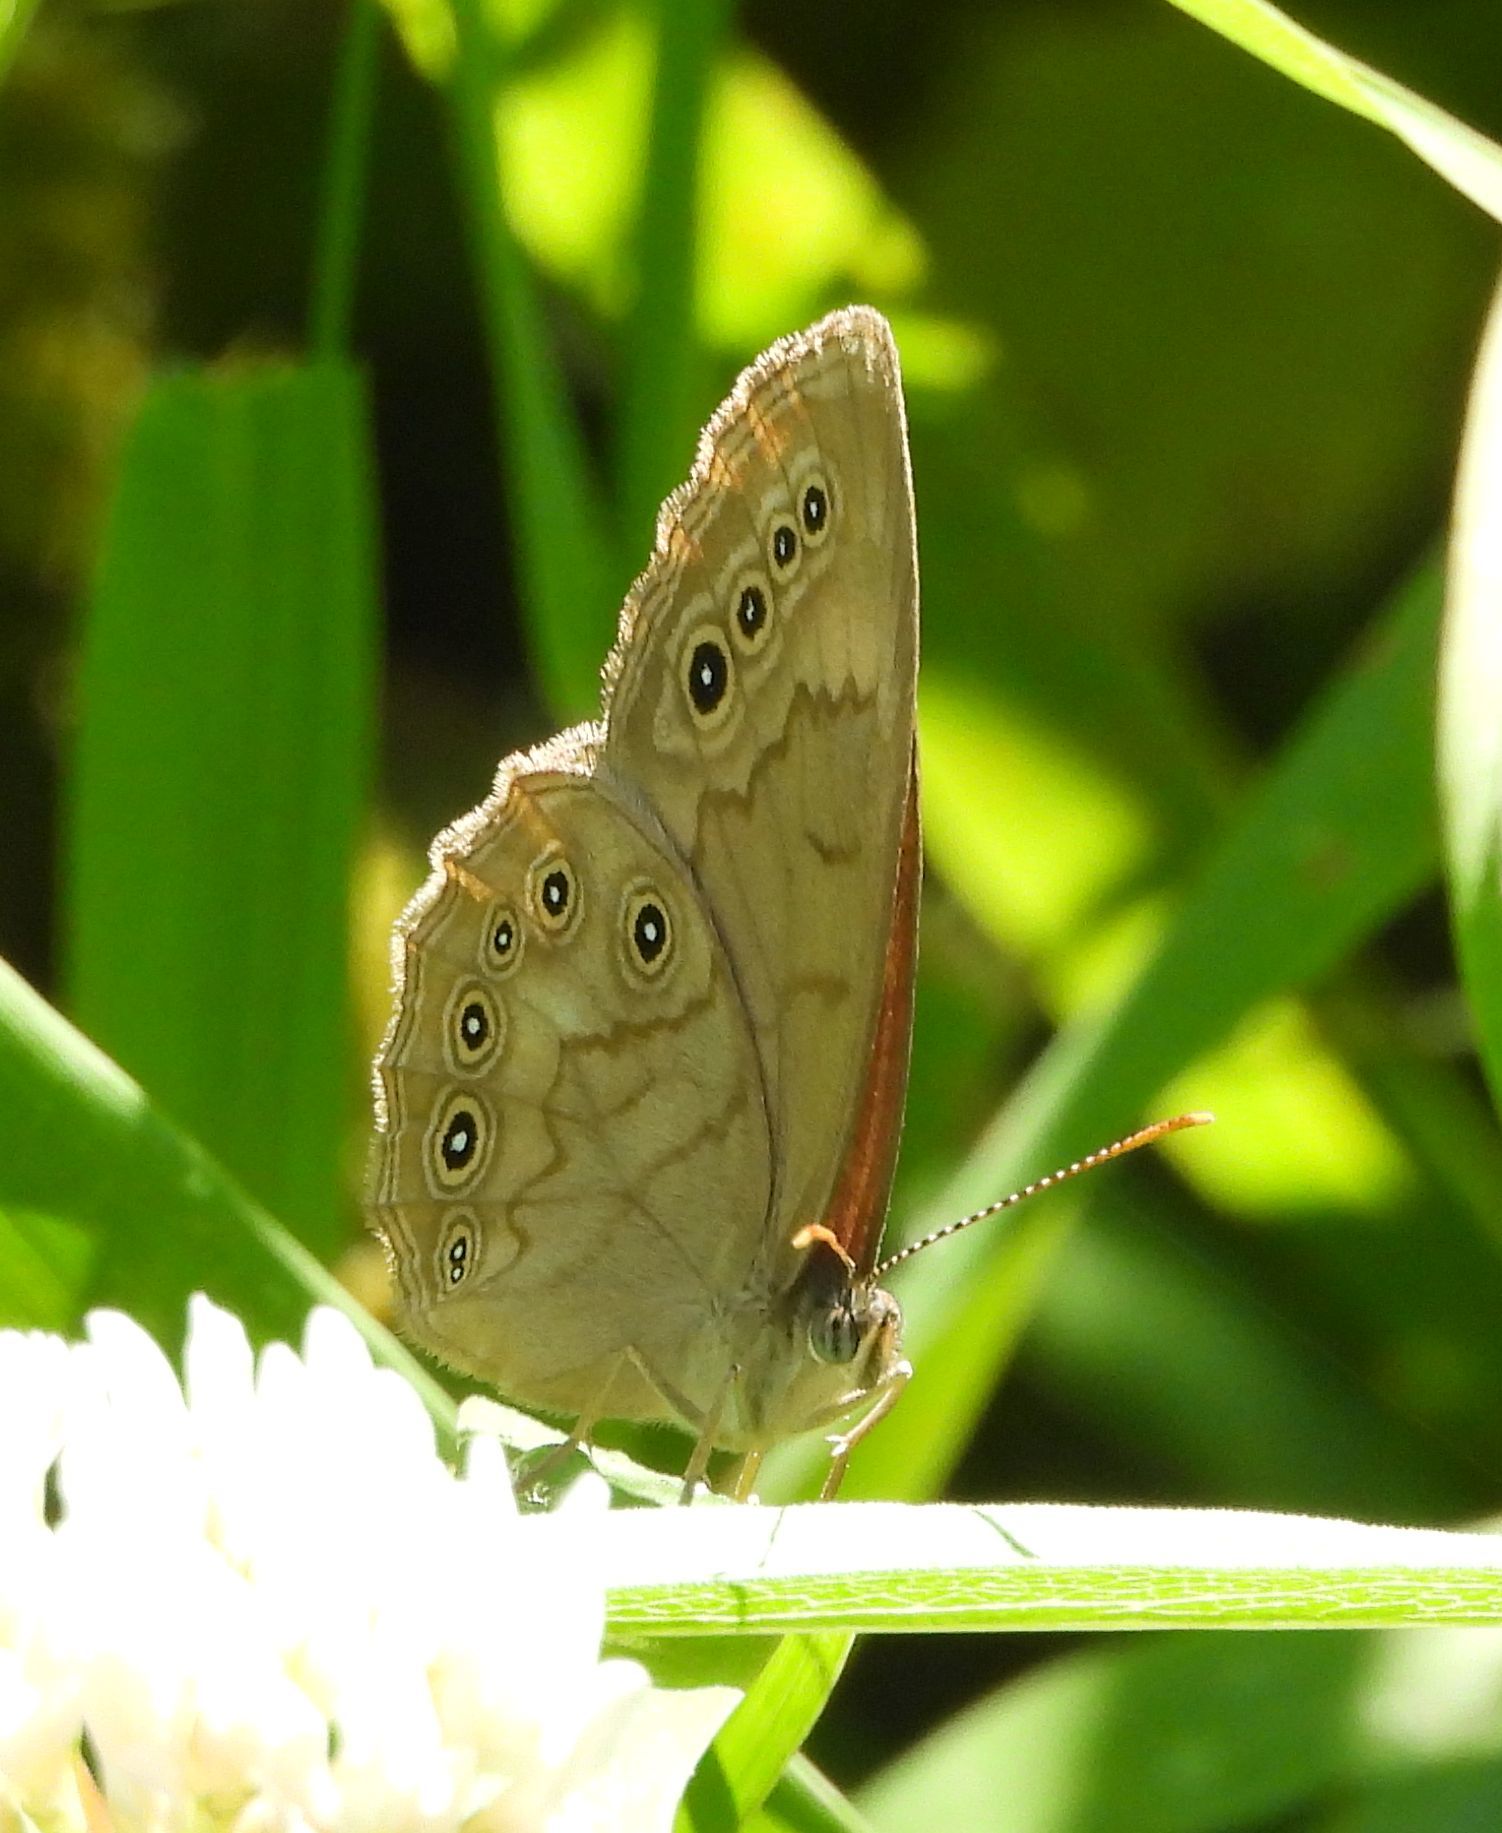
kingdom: Animalia
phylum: Arthropoda
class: Insecta
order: Lepidoptera
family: Nymphalidae
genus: Lethe
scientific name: Lethe eurydice
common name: Eyed brown
